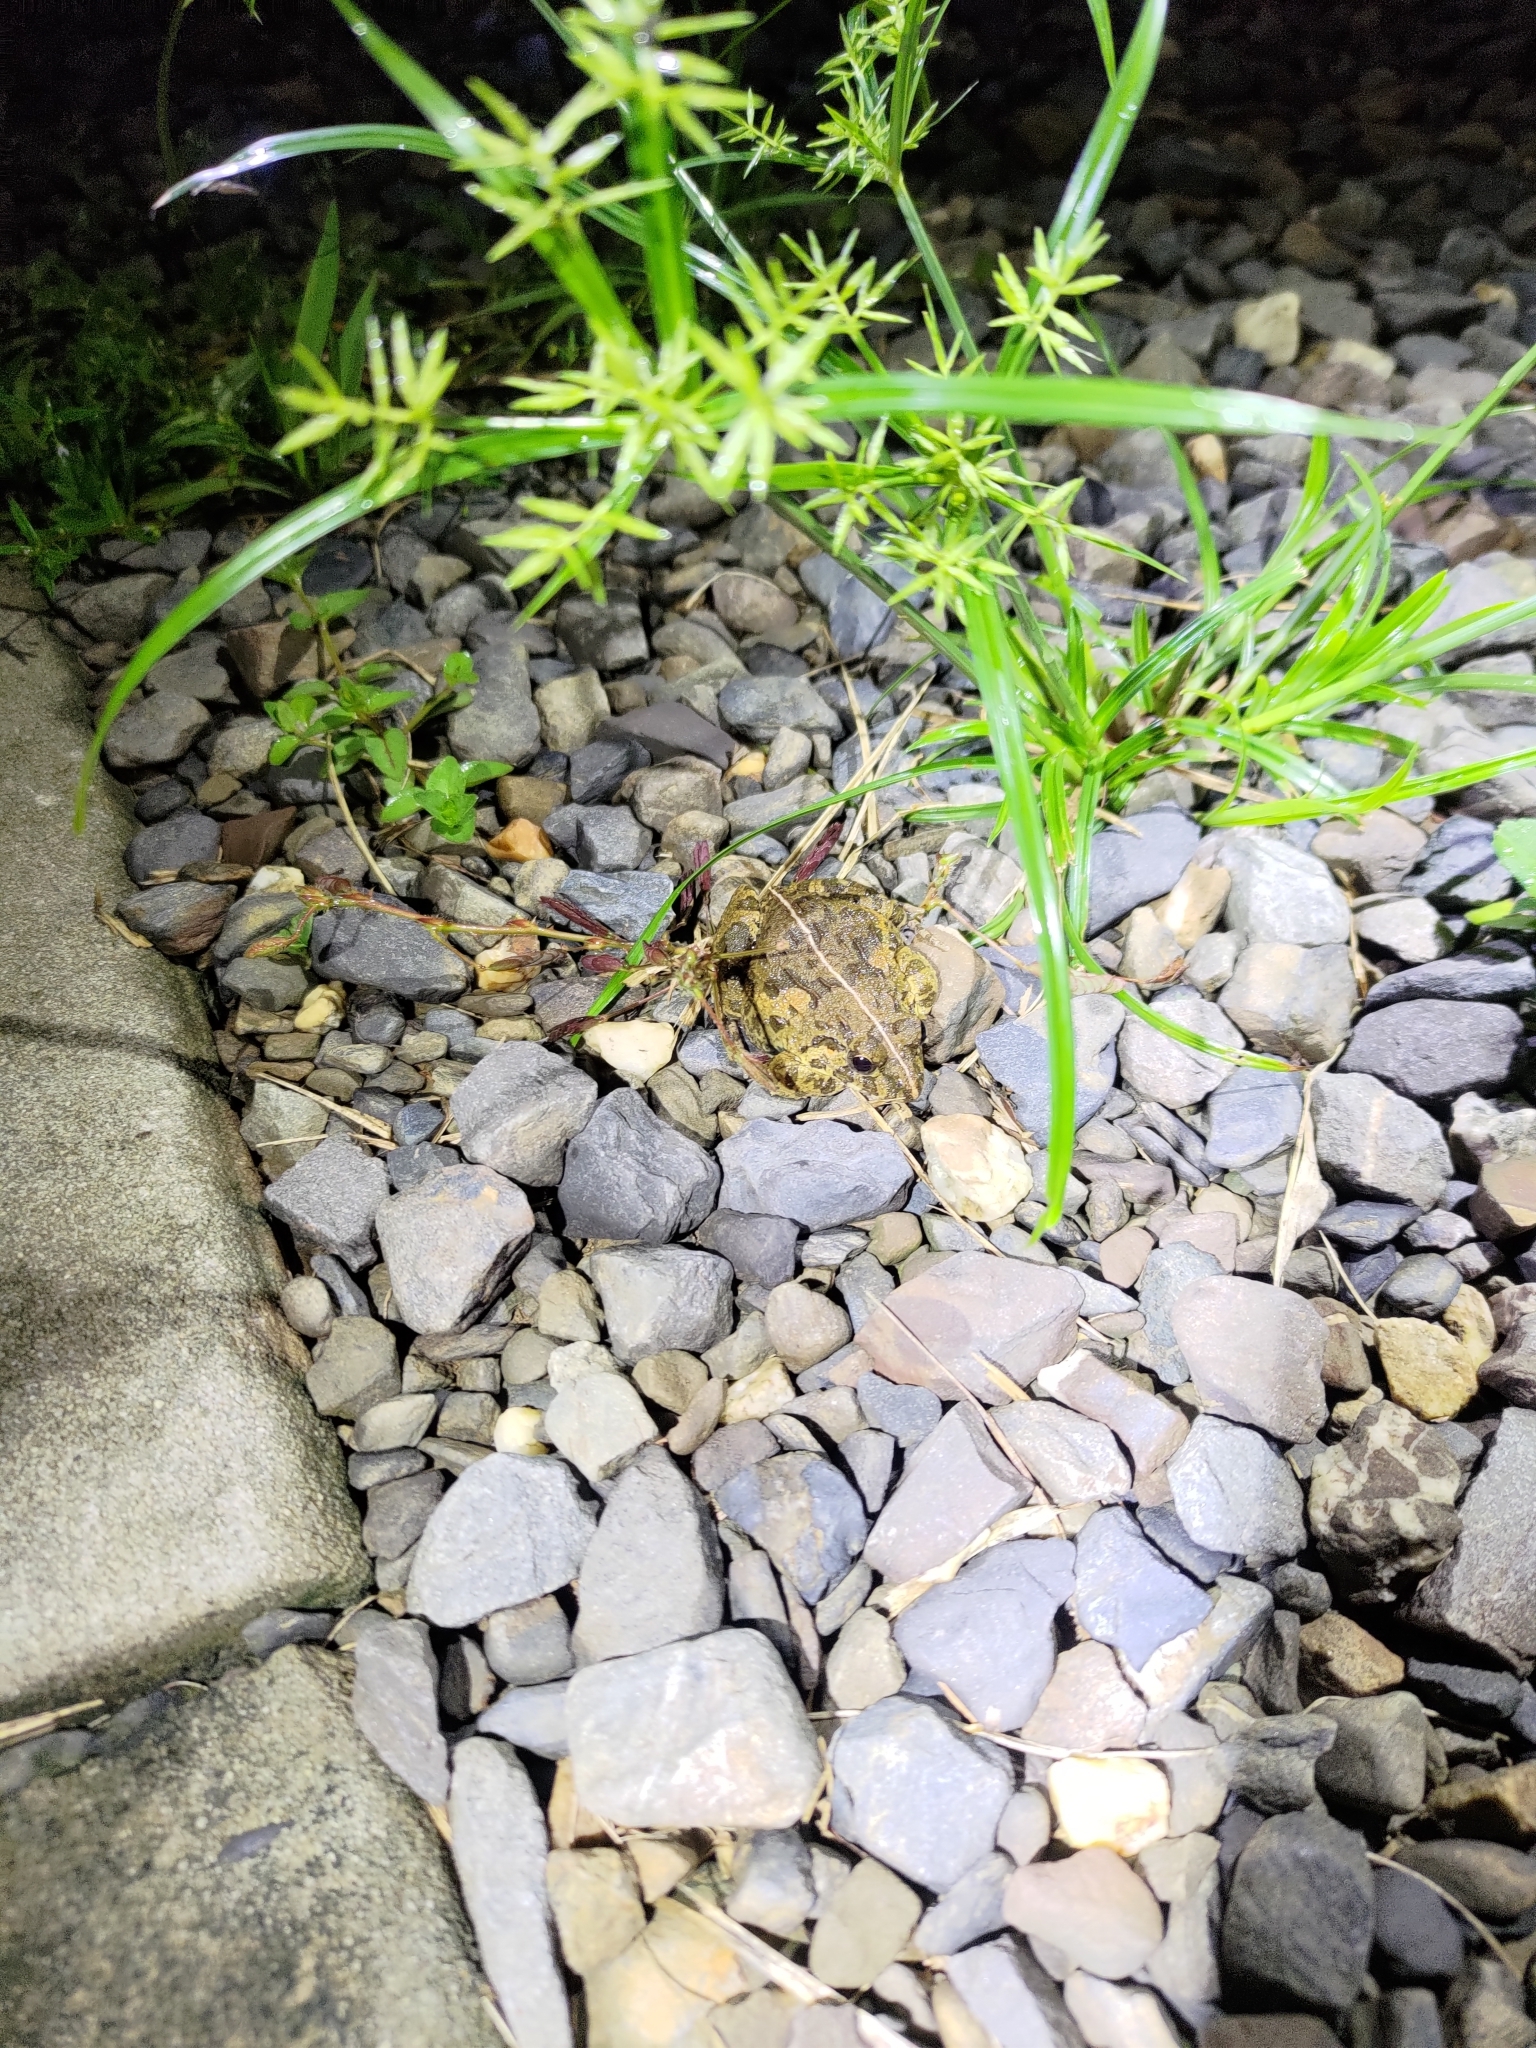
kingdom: Animalia
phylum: Chordata
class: Amphibia
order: Anura
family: Dicroglossidae
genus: Fejervarya
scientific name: Fejervarya limnocharis
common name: Asian grass frog/common pond frog/field frog/grass frog/indian rice frog
